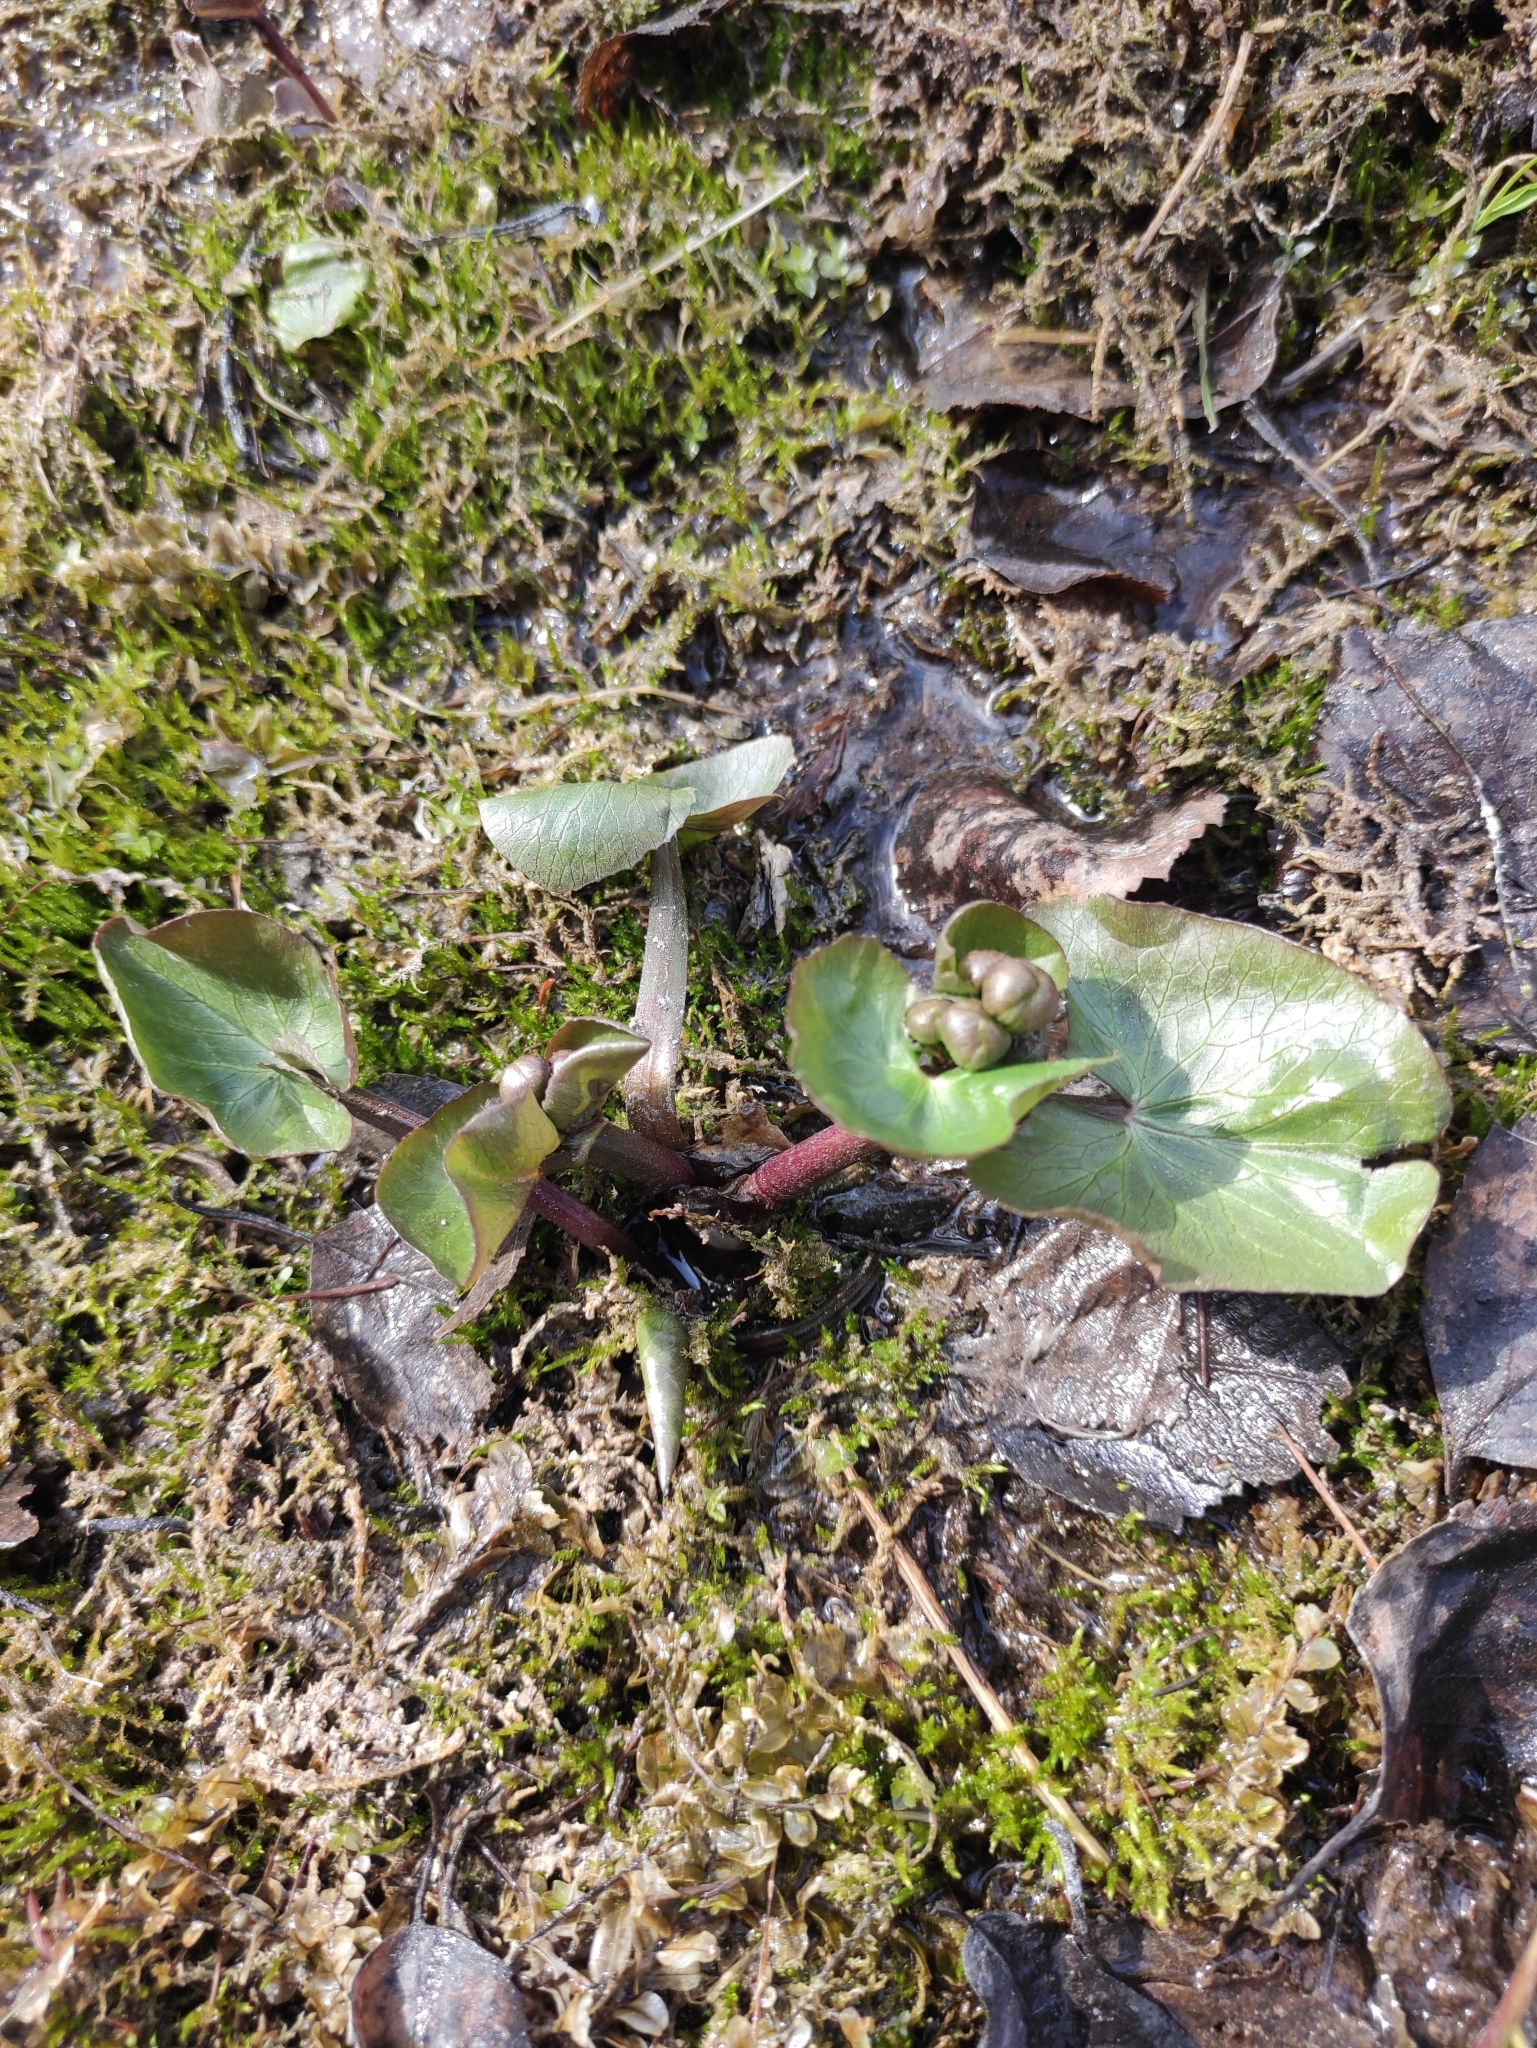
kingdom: Plantae
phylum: Tracheophyta
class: Magnoliopsida
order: Ranunculales
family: Ranunculaceae
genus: Caltha
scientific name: Caltha palustris
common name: Marsh marigold
